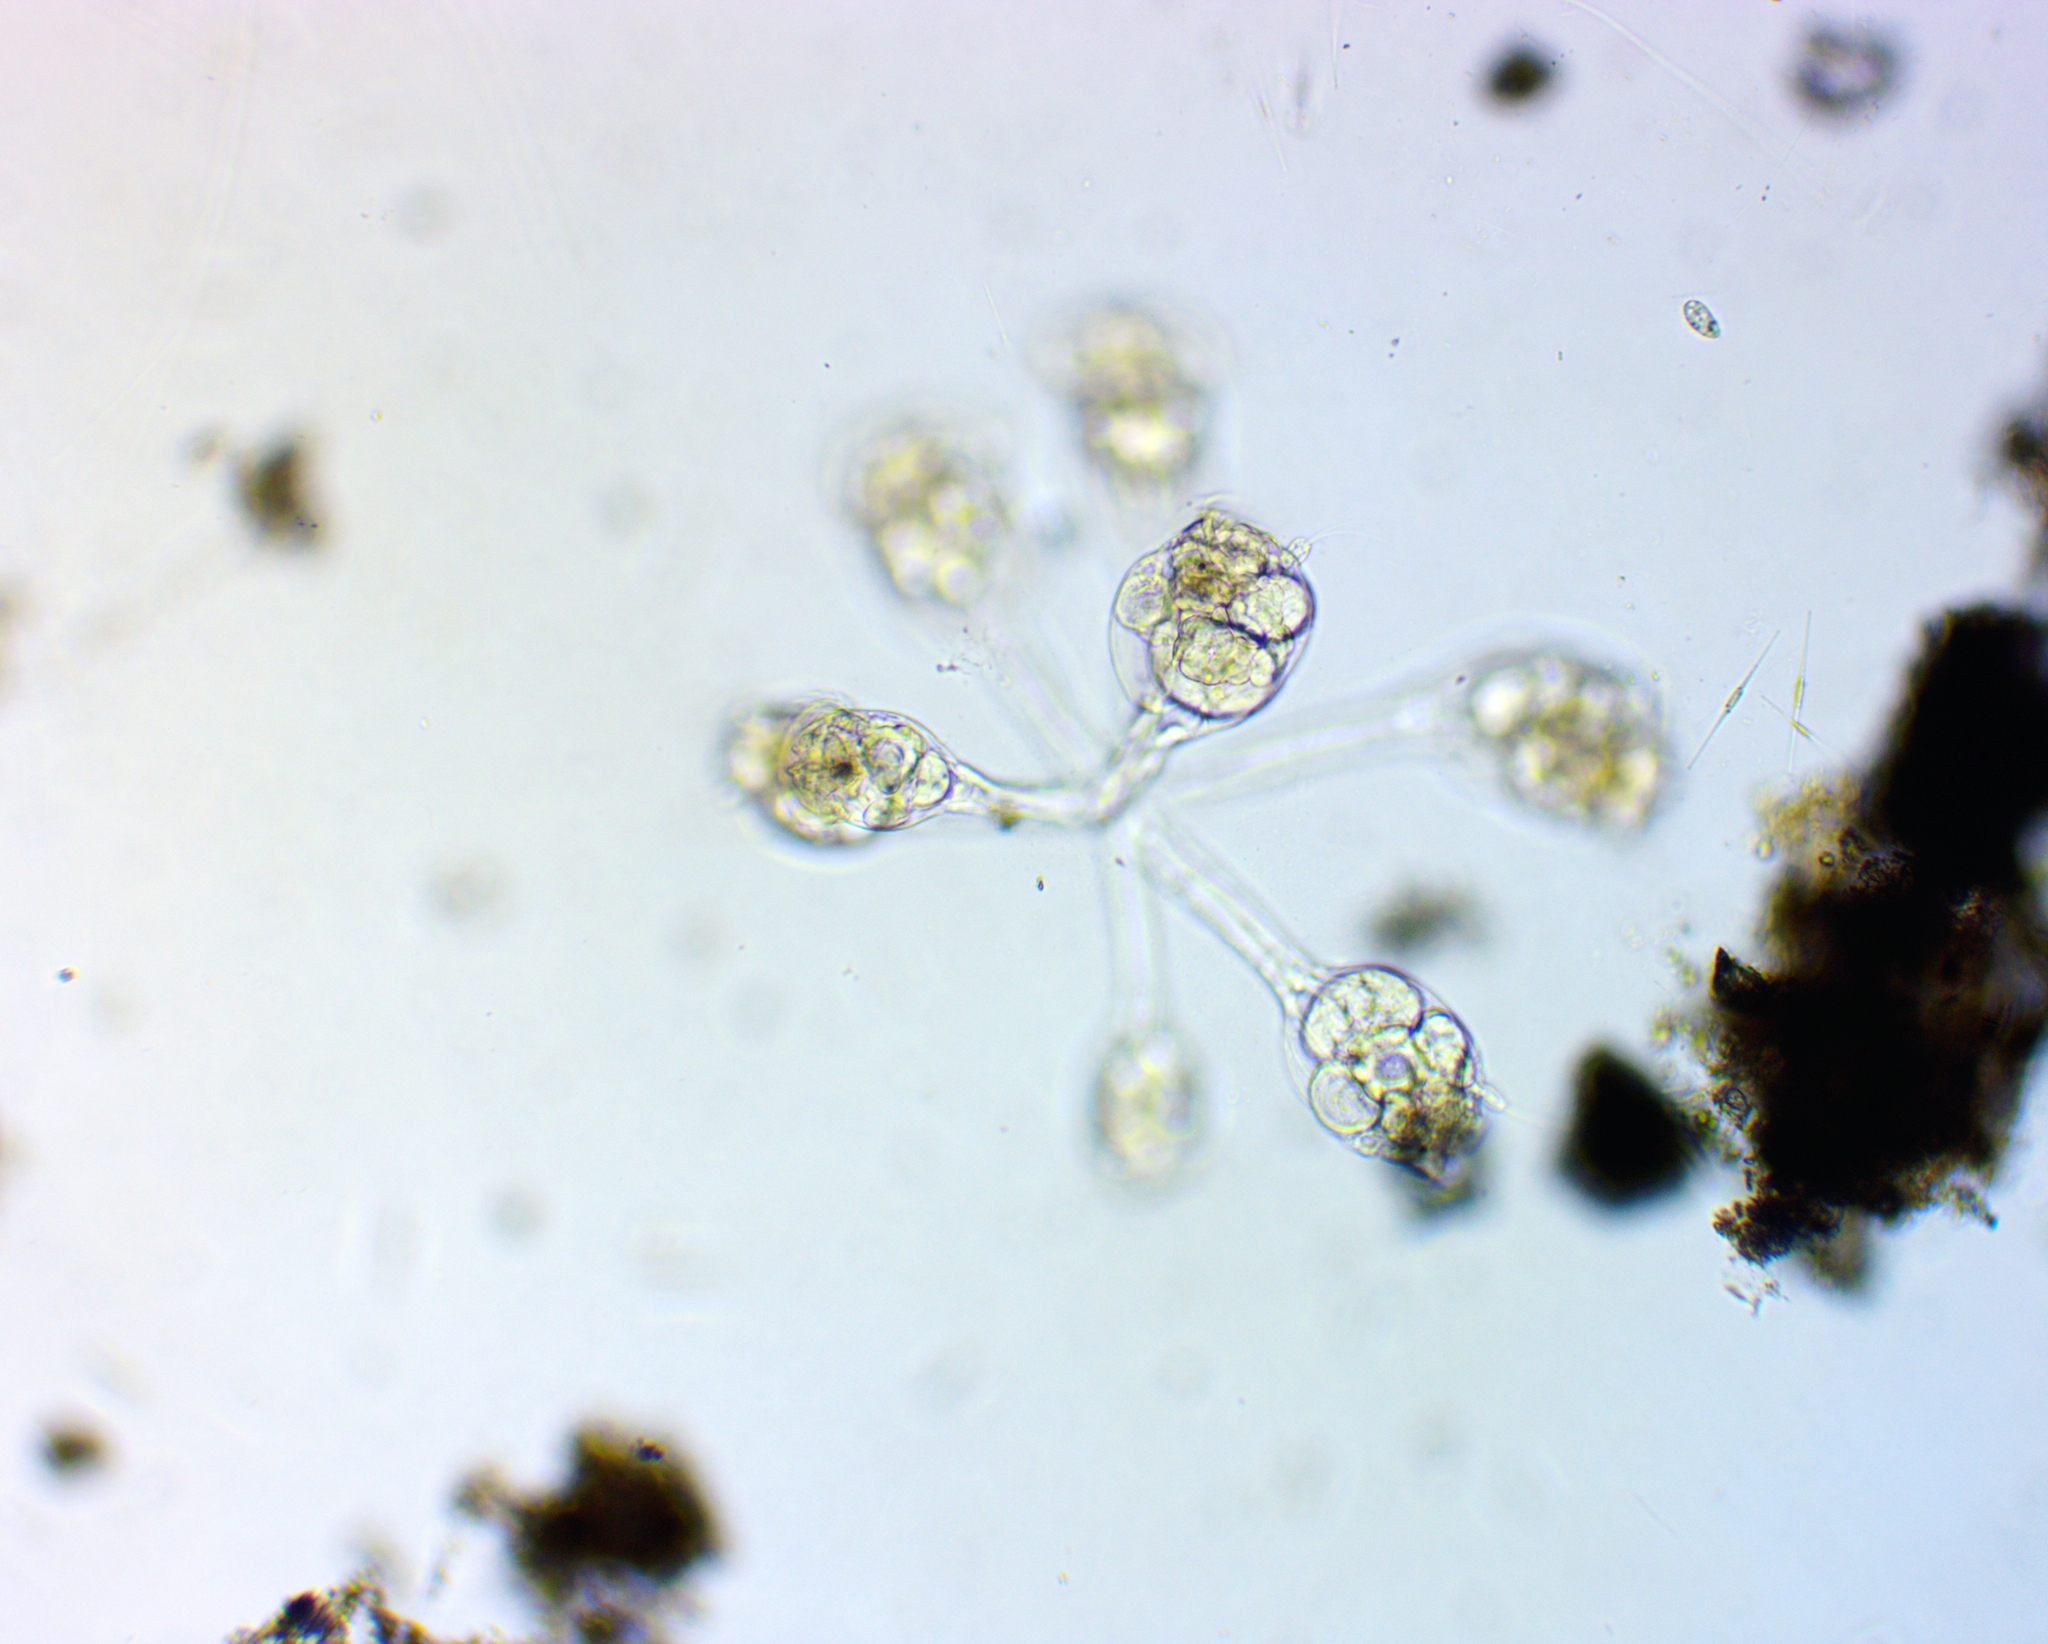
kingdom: Animalia
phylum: Rotifera
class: Eurotatoria
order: Flosculariaceae
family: Conochilidae
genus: Conochilus
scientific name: Conochilus unicornis
